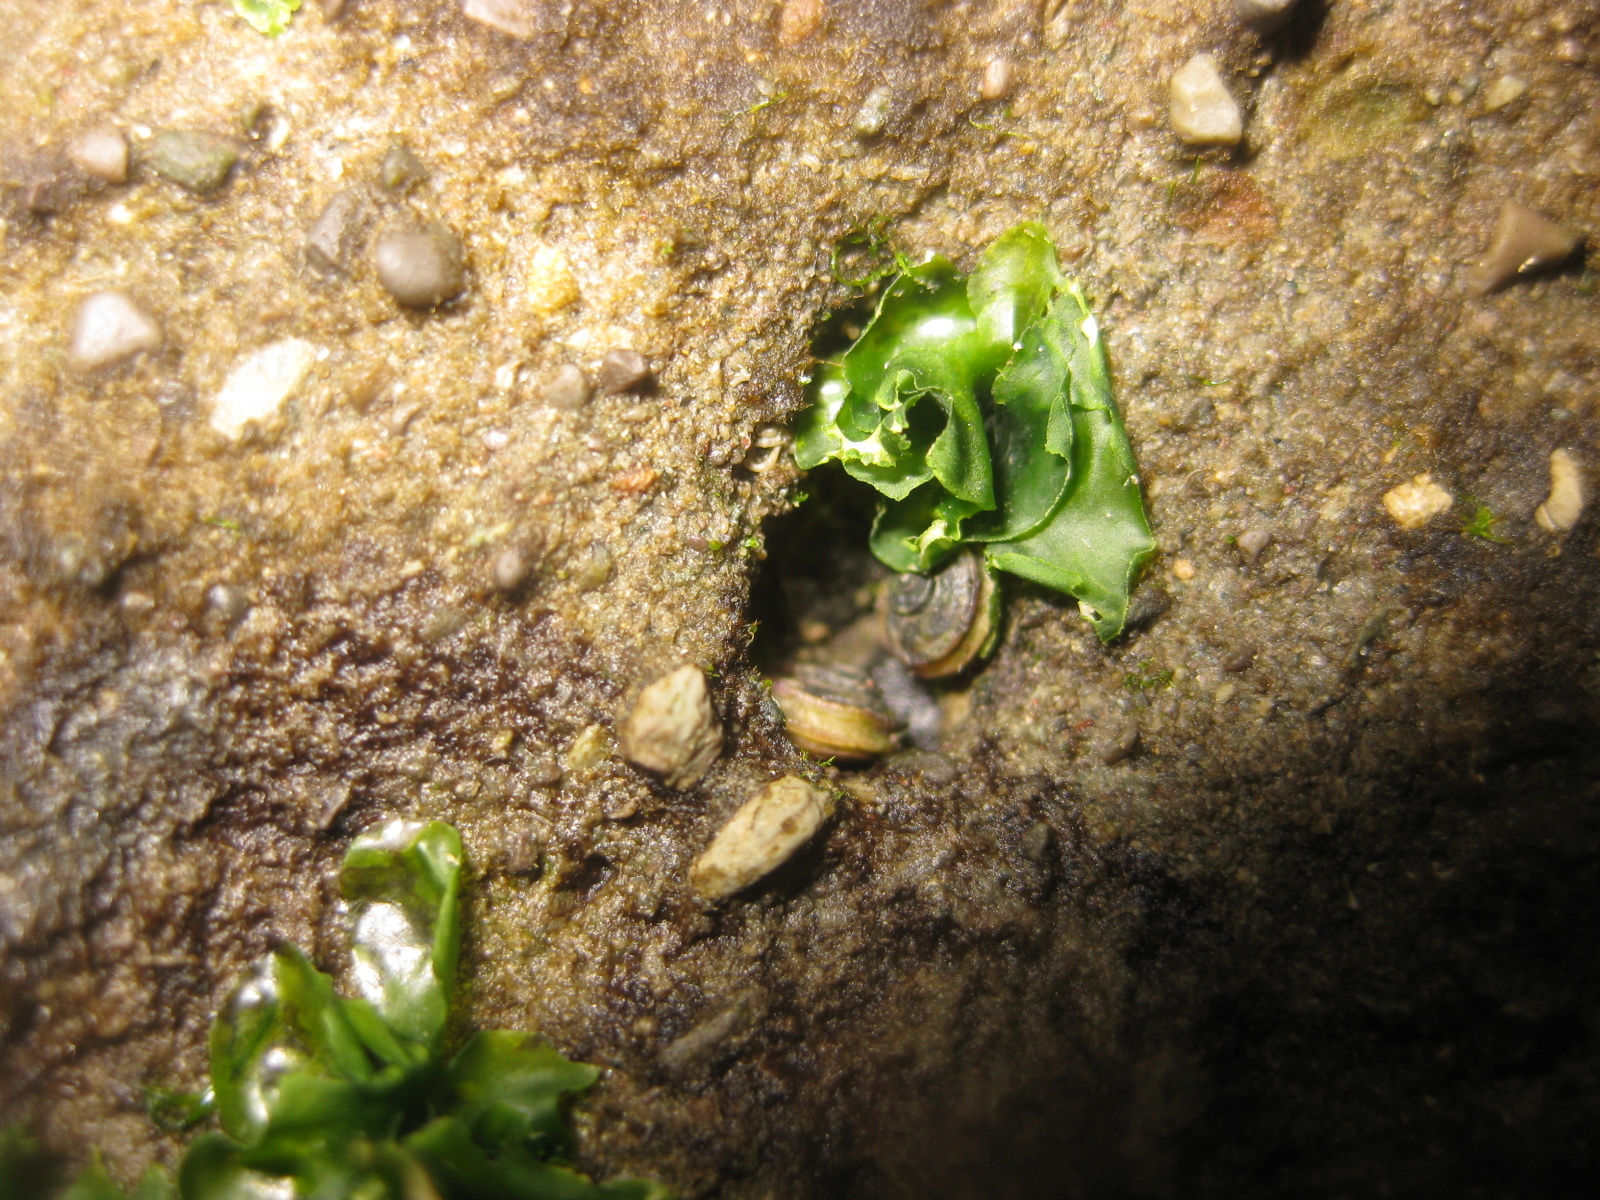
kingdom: Animalia
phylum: Mollusca
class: Gastropoda
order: Littorinimorpha
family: Littorinidae
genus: Risellopsis
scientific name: Risellopsis varia
